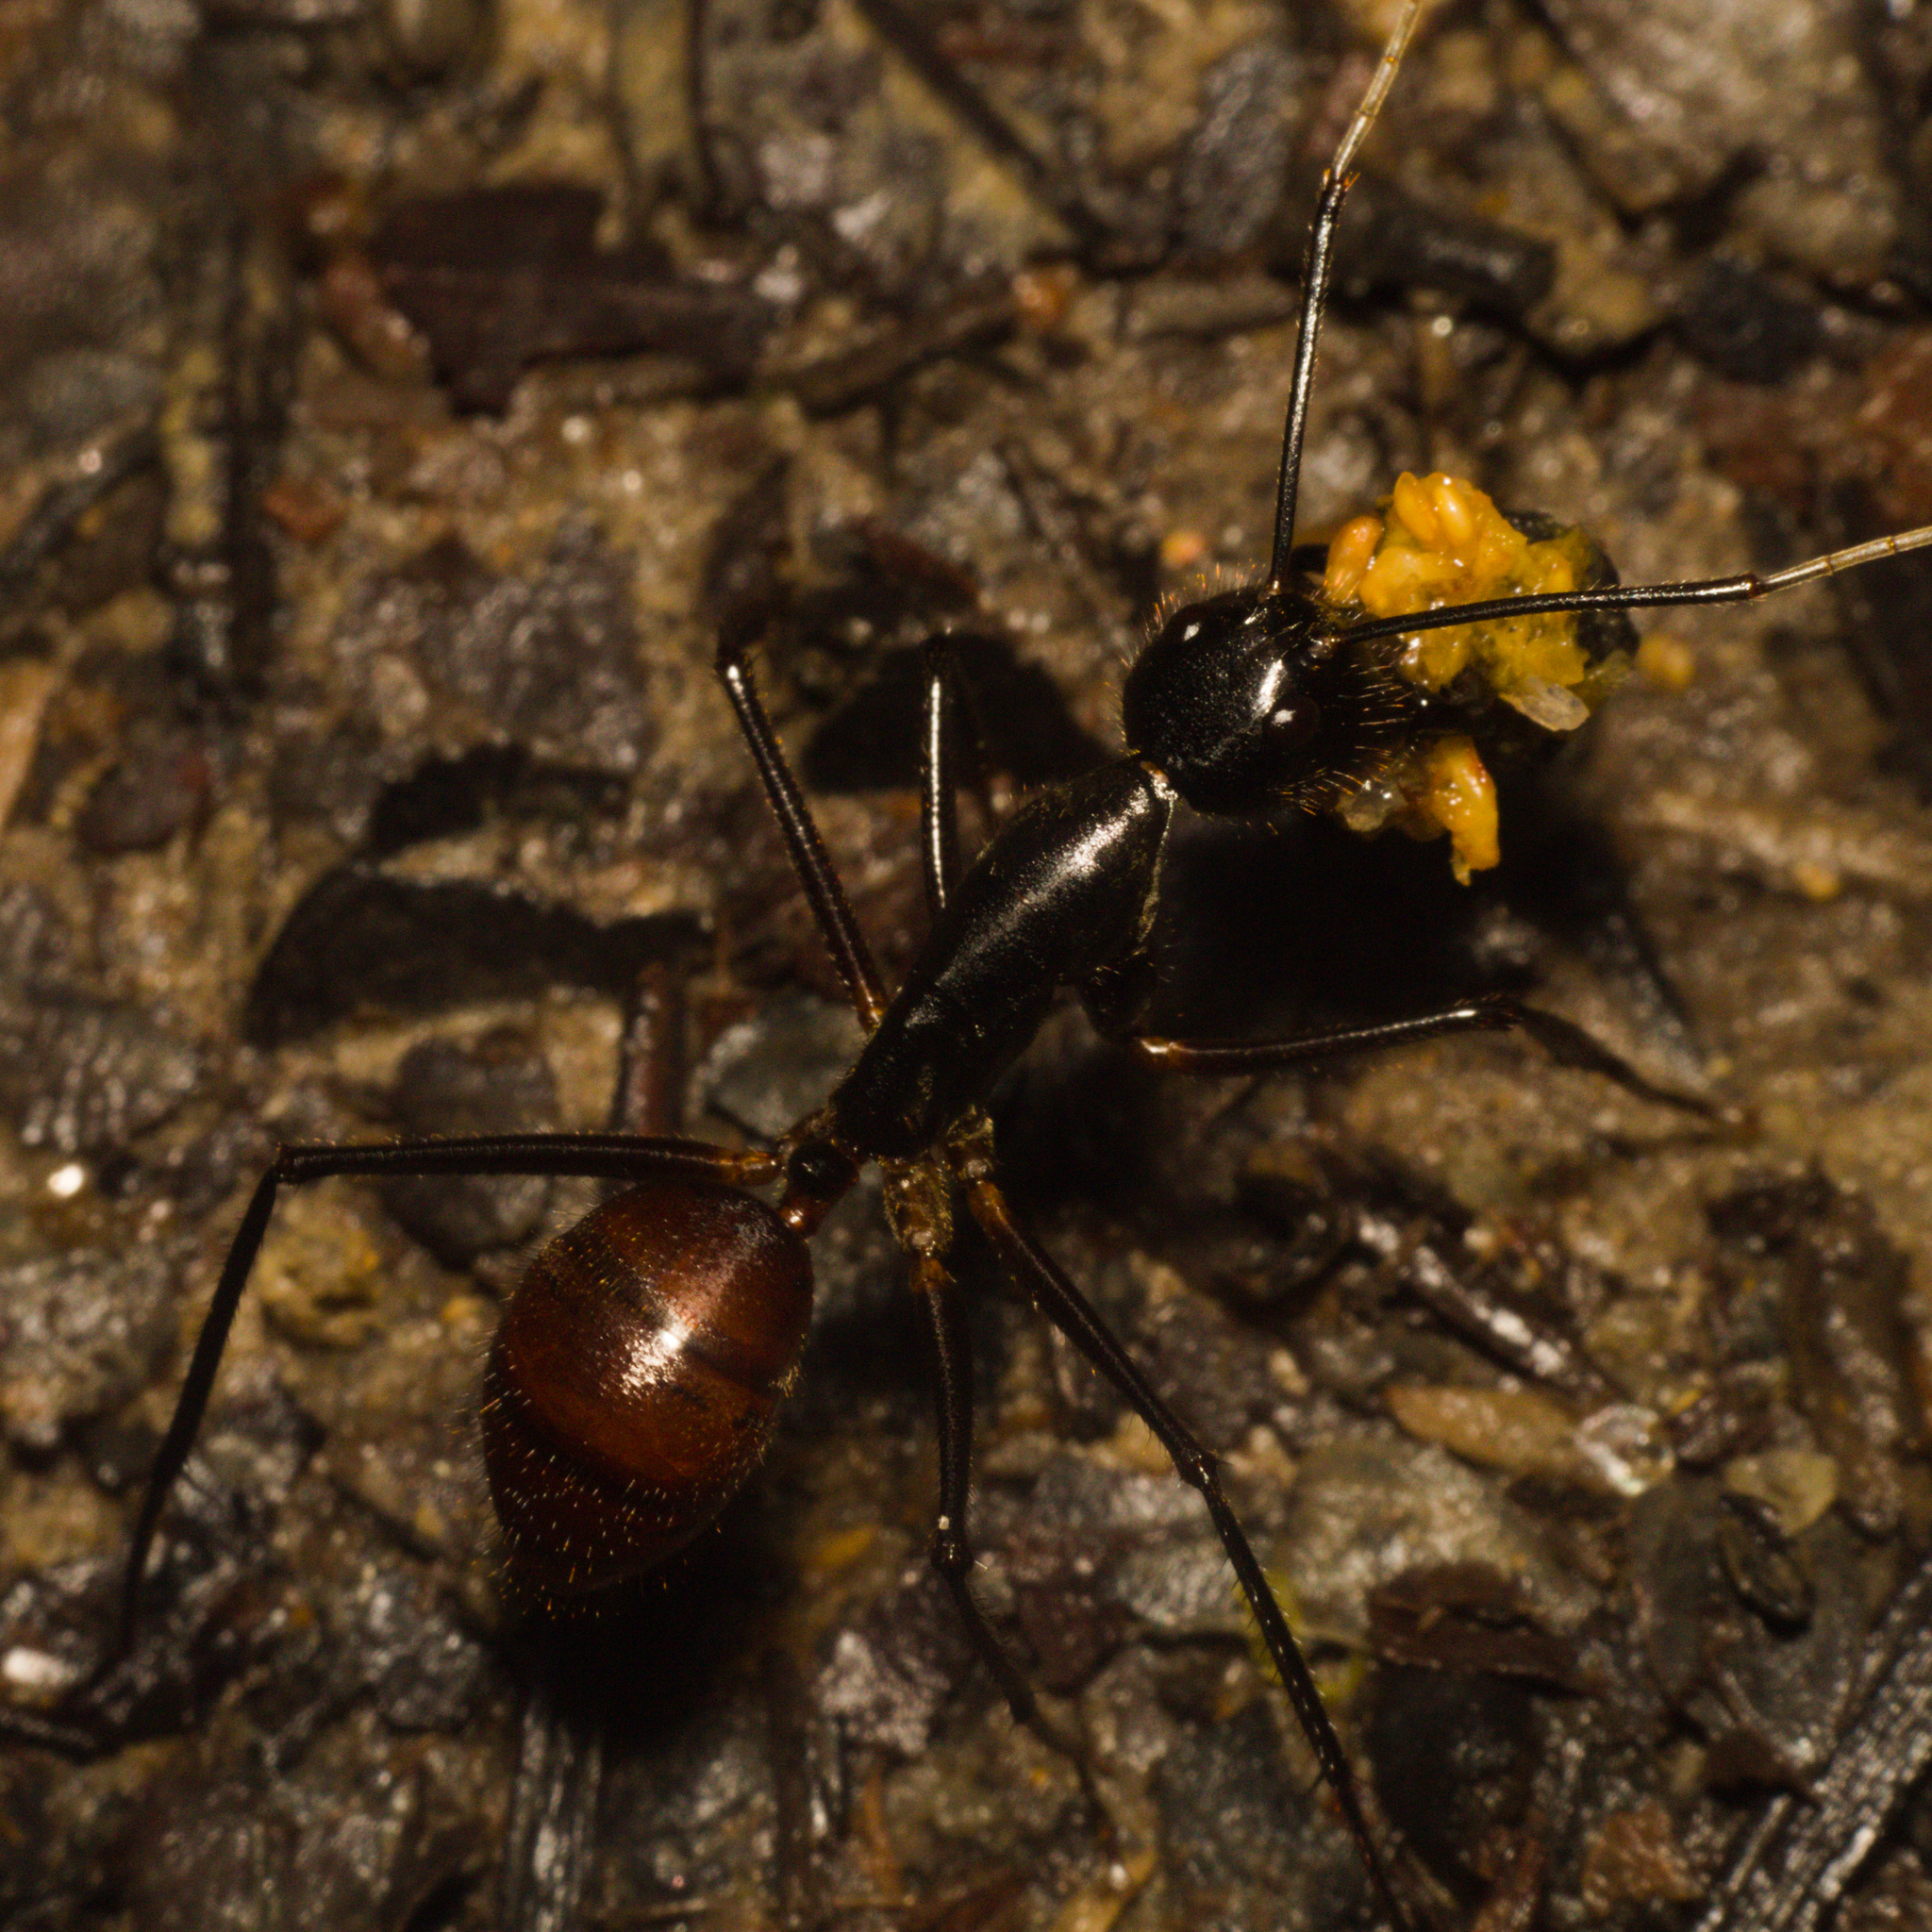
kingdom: Animalia
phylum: Arthropoda
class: Insecta
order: Hymenoptera
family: Formicidae
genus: Dinomyrmex
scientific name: Dinomyrmex
